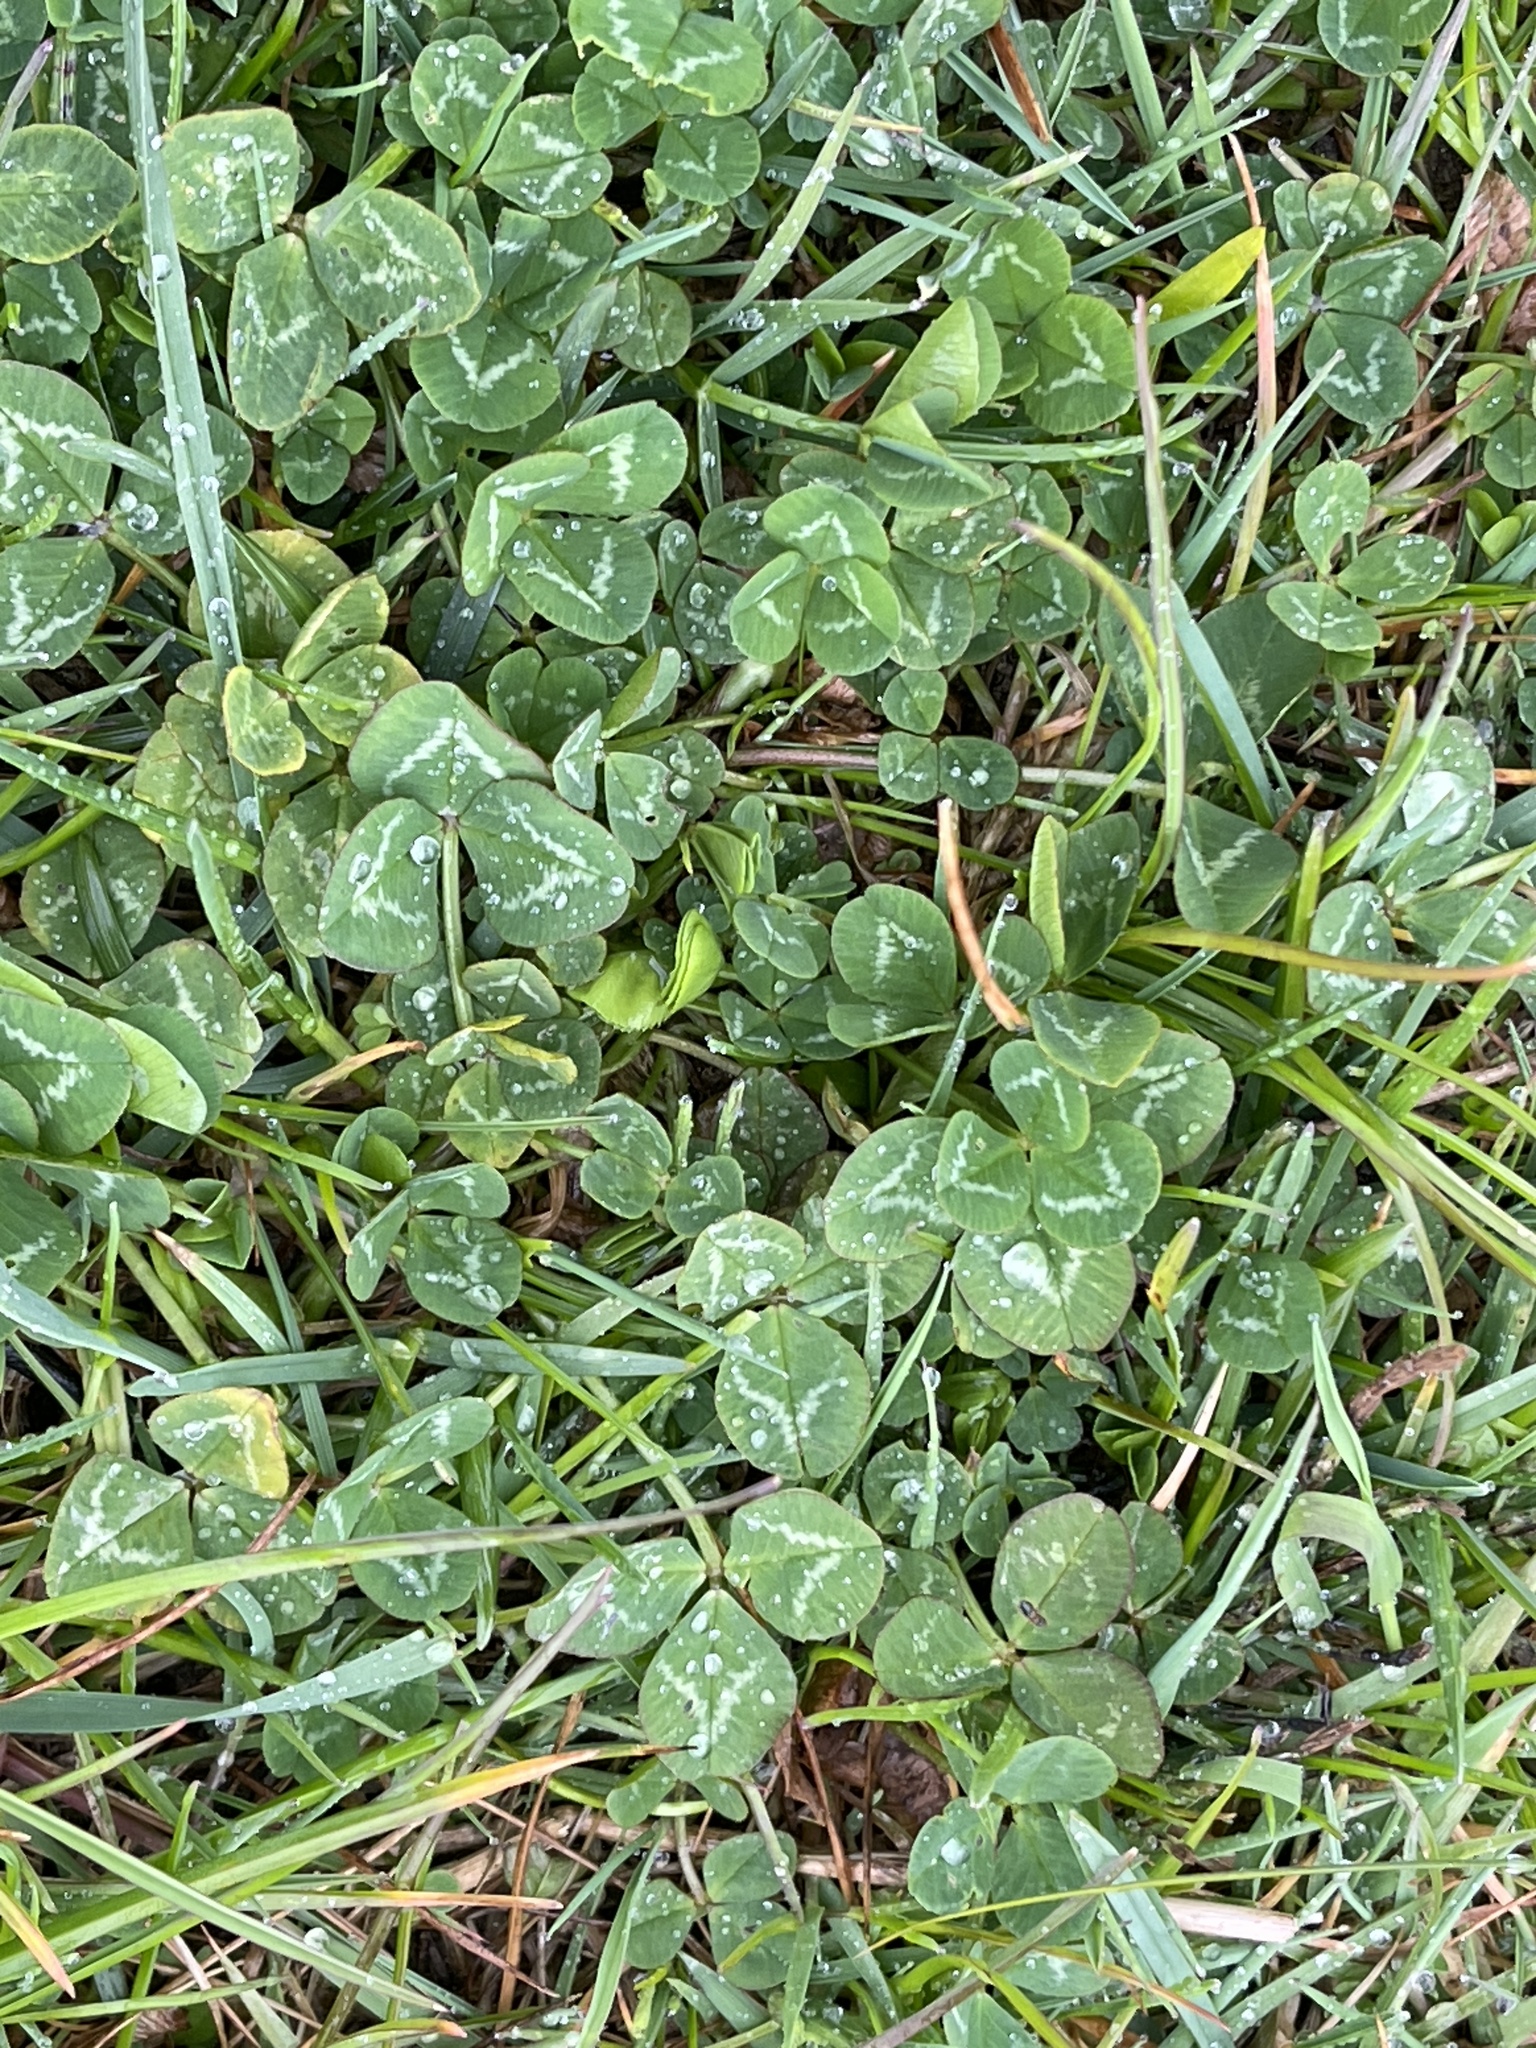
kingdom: Plantae
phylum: Tracheophyta
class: Magnoliopsida
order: Fabales
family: Fabaceae
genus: Trifolium
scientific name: Trifolium repens
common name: White clover
